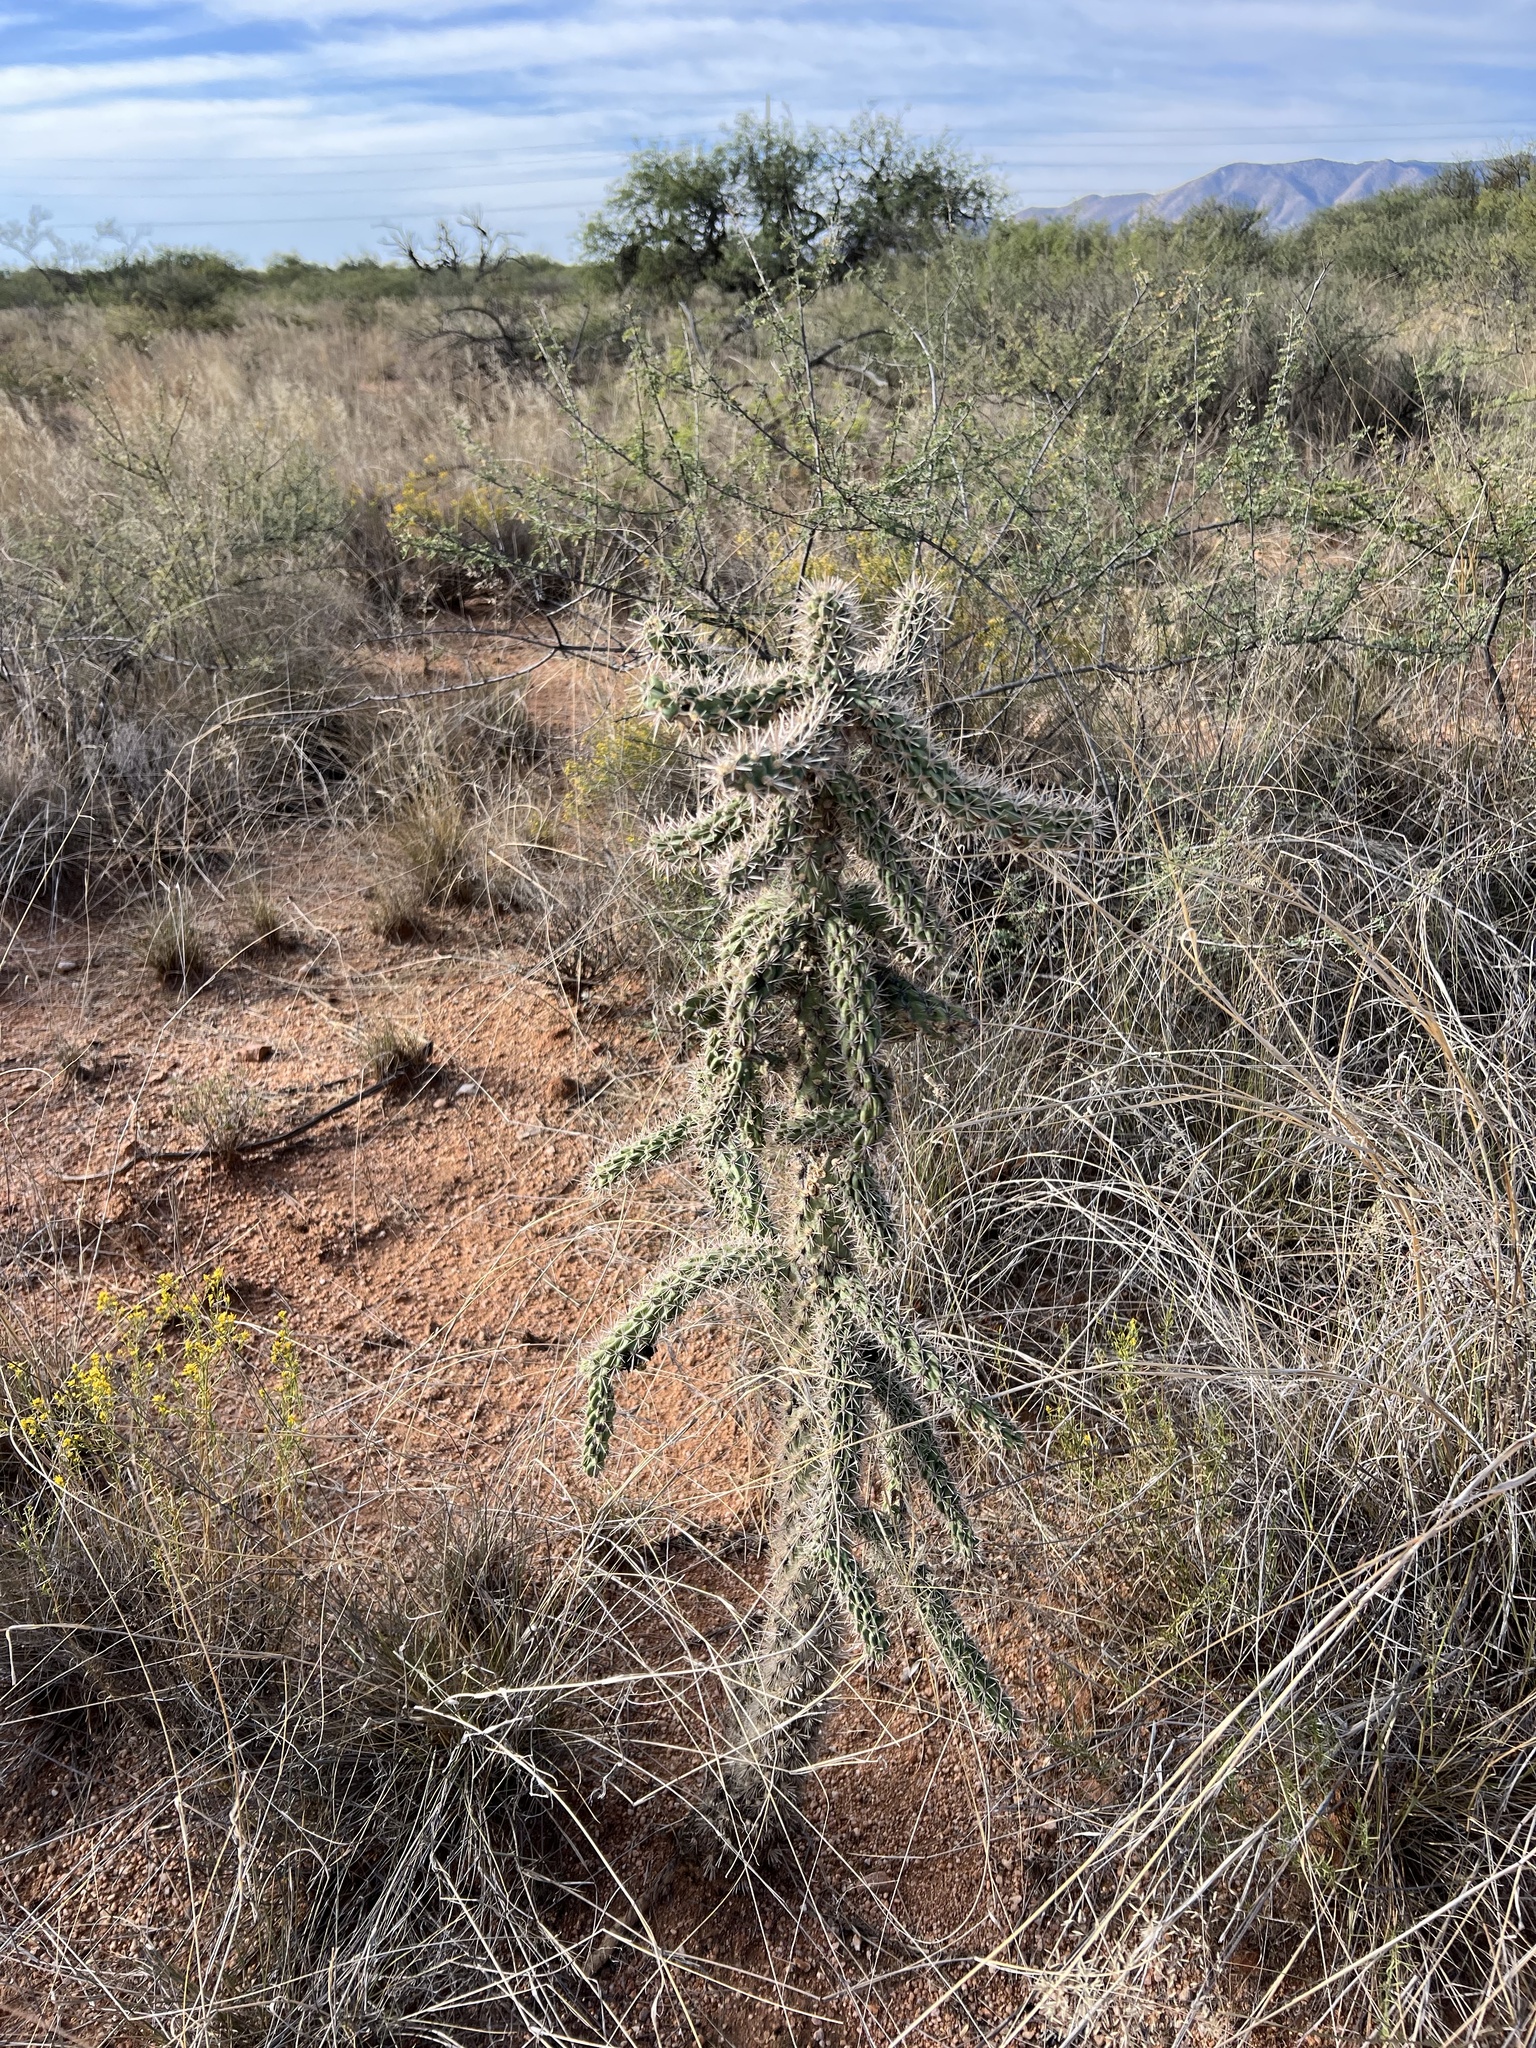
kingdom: Plantae
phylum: Tracheophyta
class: Magnoliopsida
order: Caryophyllales
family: Cactaceae
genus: Cylindropuntia
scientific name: Cylindropuntia imbricata
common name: Candelabrum cactus
